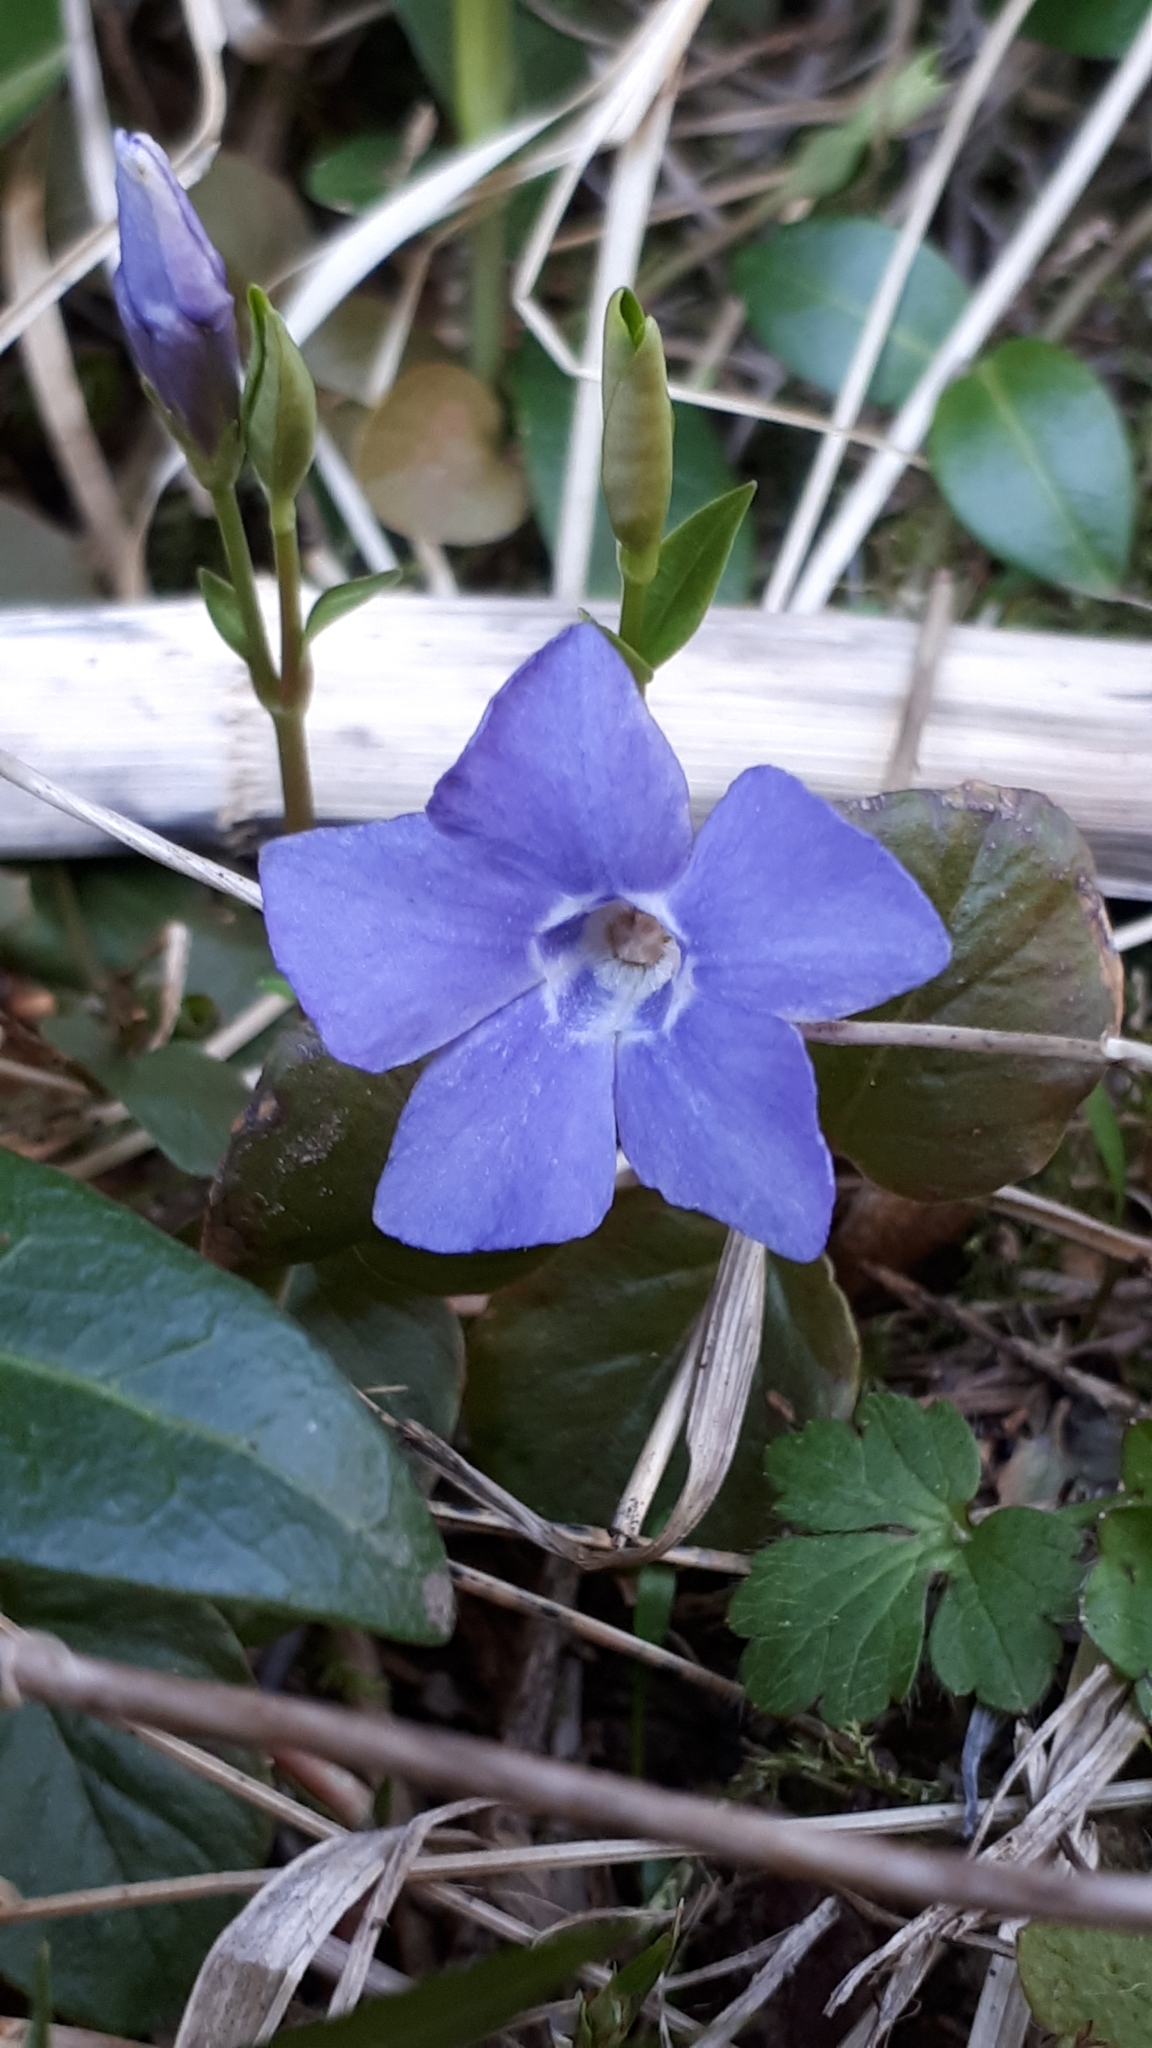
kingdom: Plantae
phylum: Tracheophyta
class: Magnoliopsida
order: Gentianales
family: Apocynaceae
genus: Vinca
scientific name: Vinca minor
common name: Lesser periwinkle
